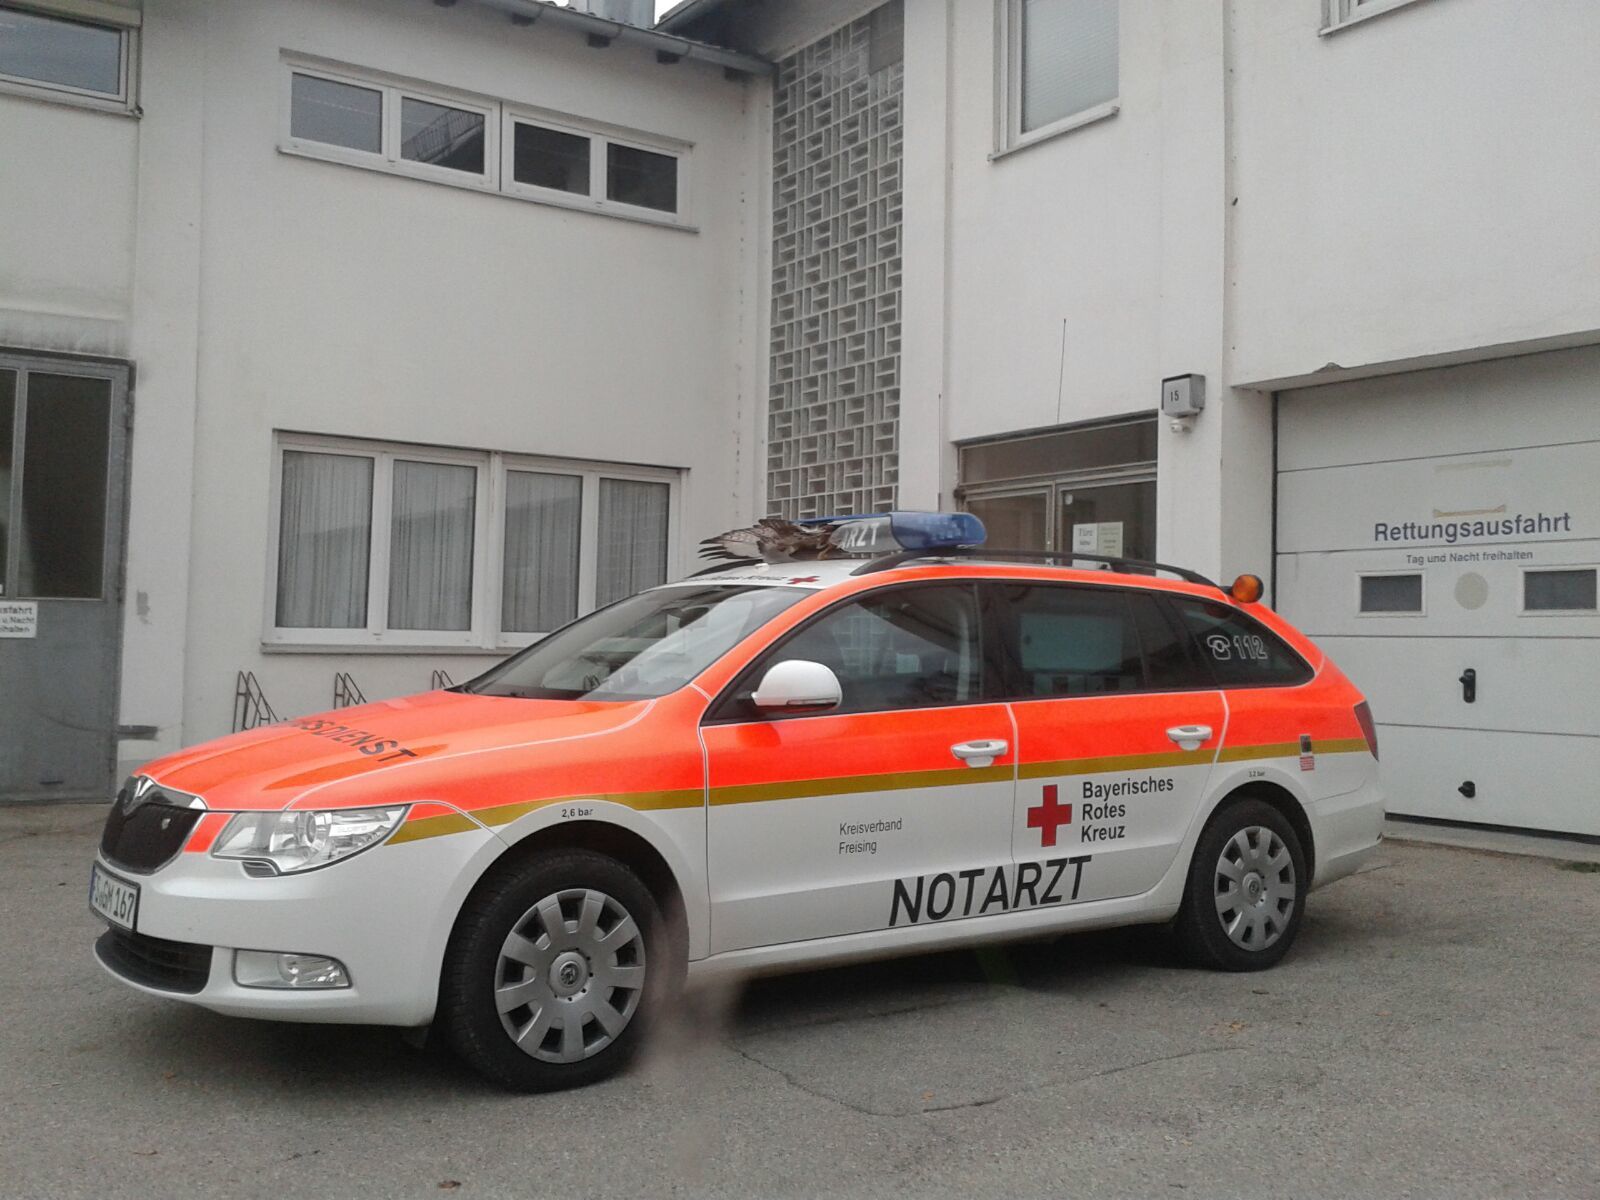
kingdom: Animalia
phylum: Chordata
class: Aves
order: Accipitriformes
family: Accipitridae
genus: Buteo
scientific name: Buteo buteo
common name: Common buzzard
